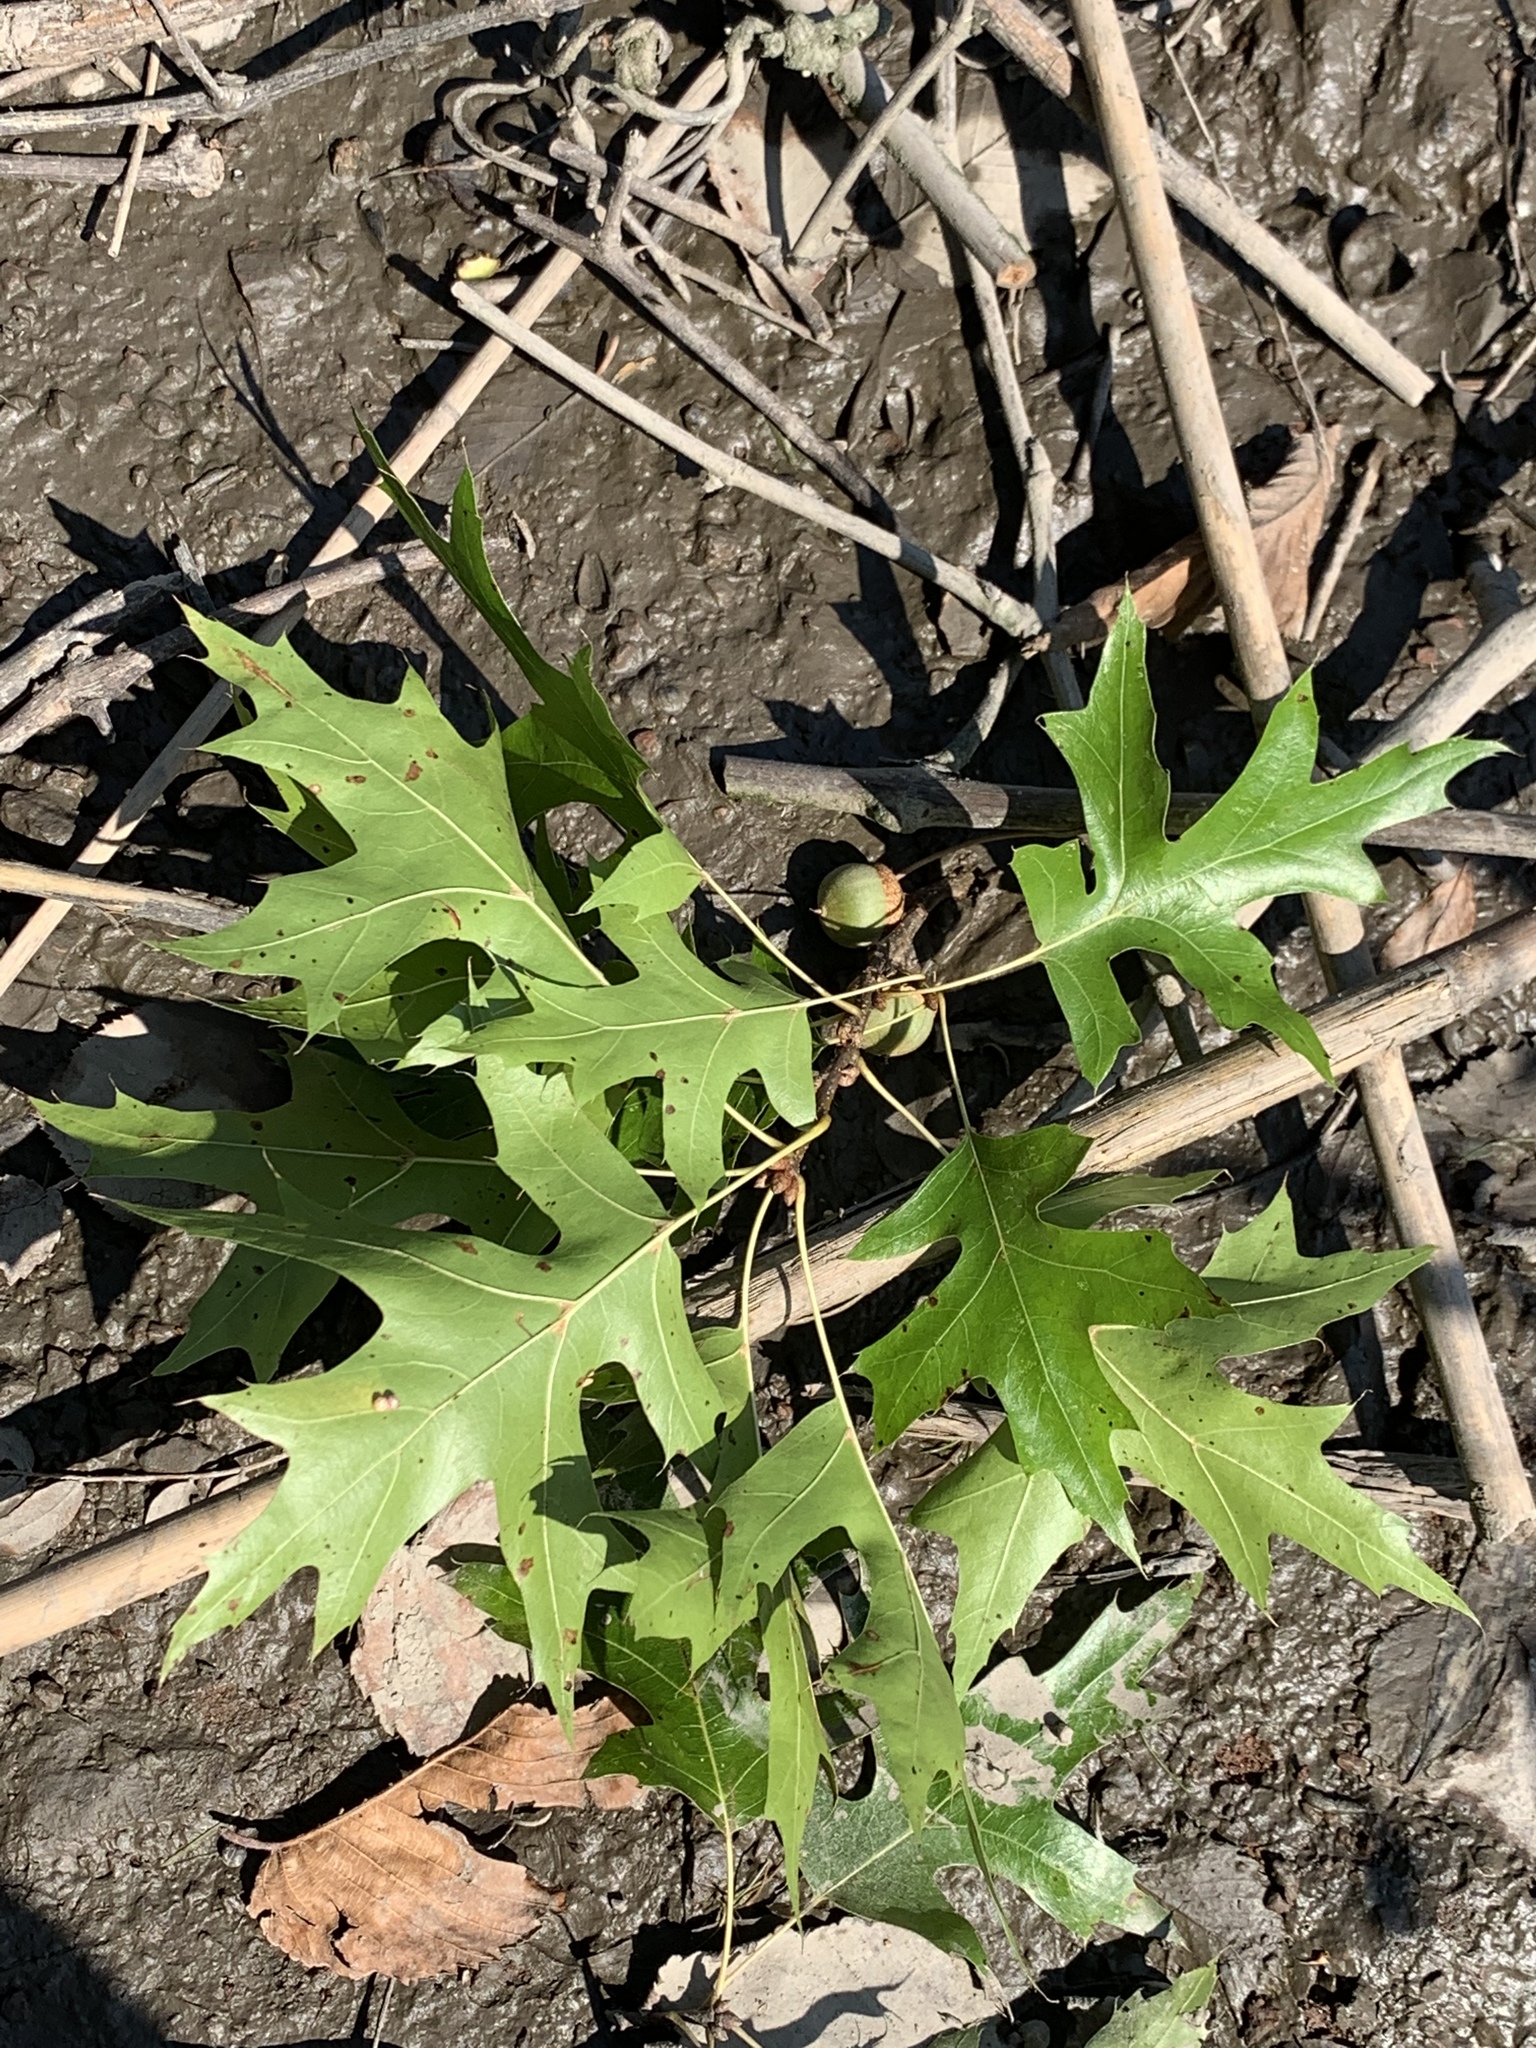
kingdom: Plantae
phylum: Tracheophyta
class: Magnoliopsida
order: Fagales
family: Fagaceae
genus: Quercus
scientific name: Quercus palustris
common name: Pin oak
